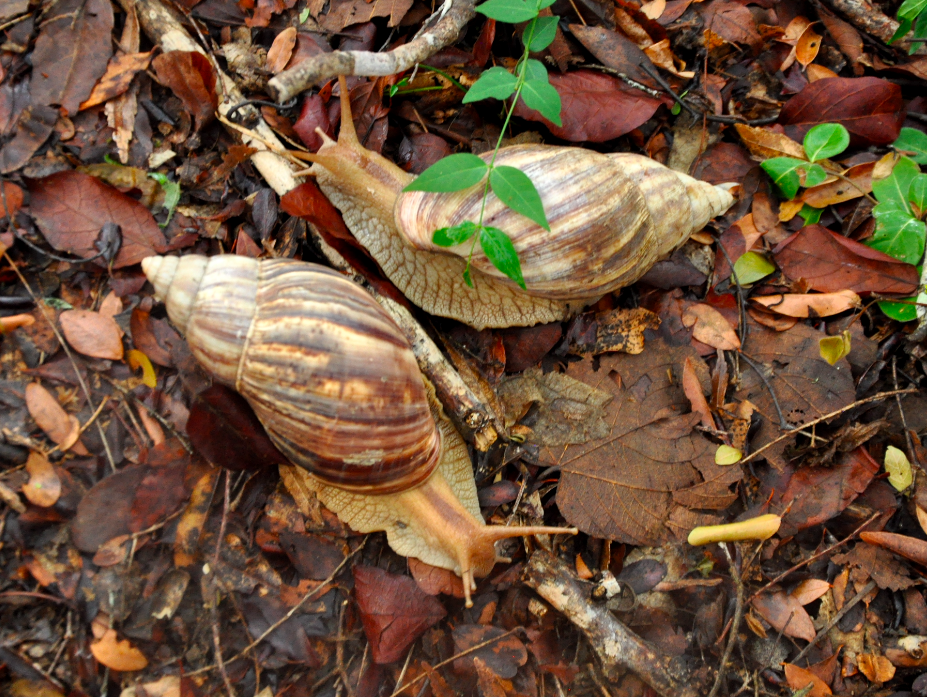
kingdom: Animalia
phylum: Mollusca
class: Gastropoda
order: Stylommatophora
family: Achatinidae
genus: Lissachatina
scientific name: Lissachatina immaculata
